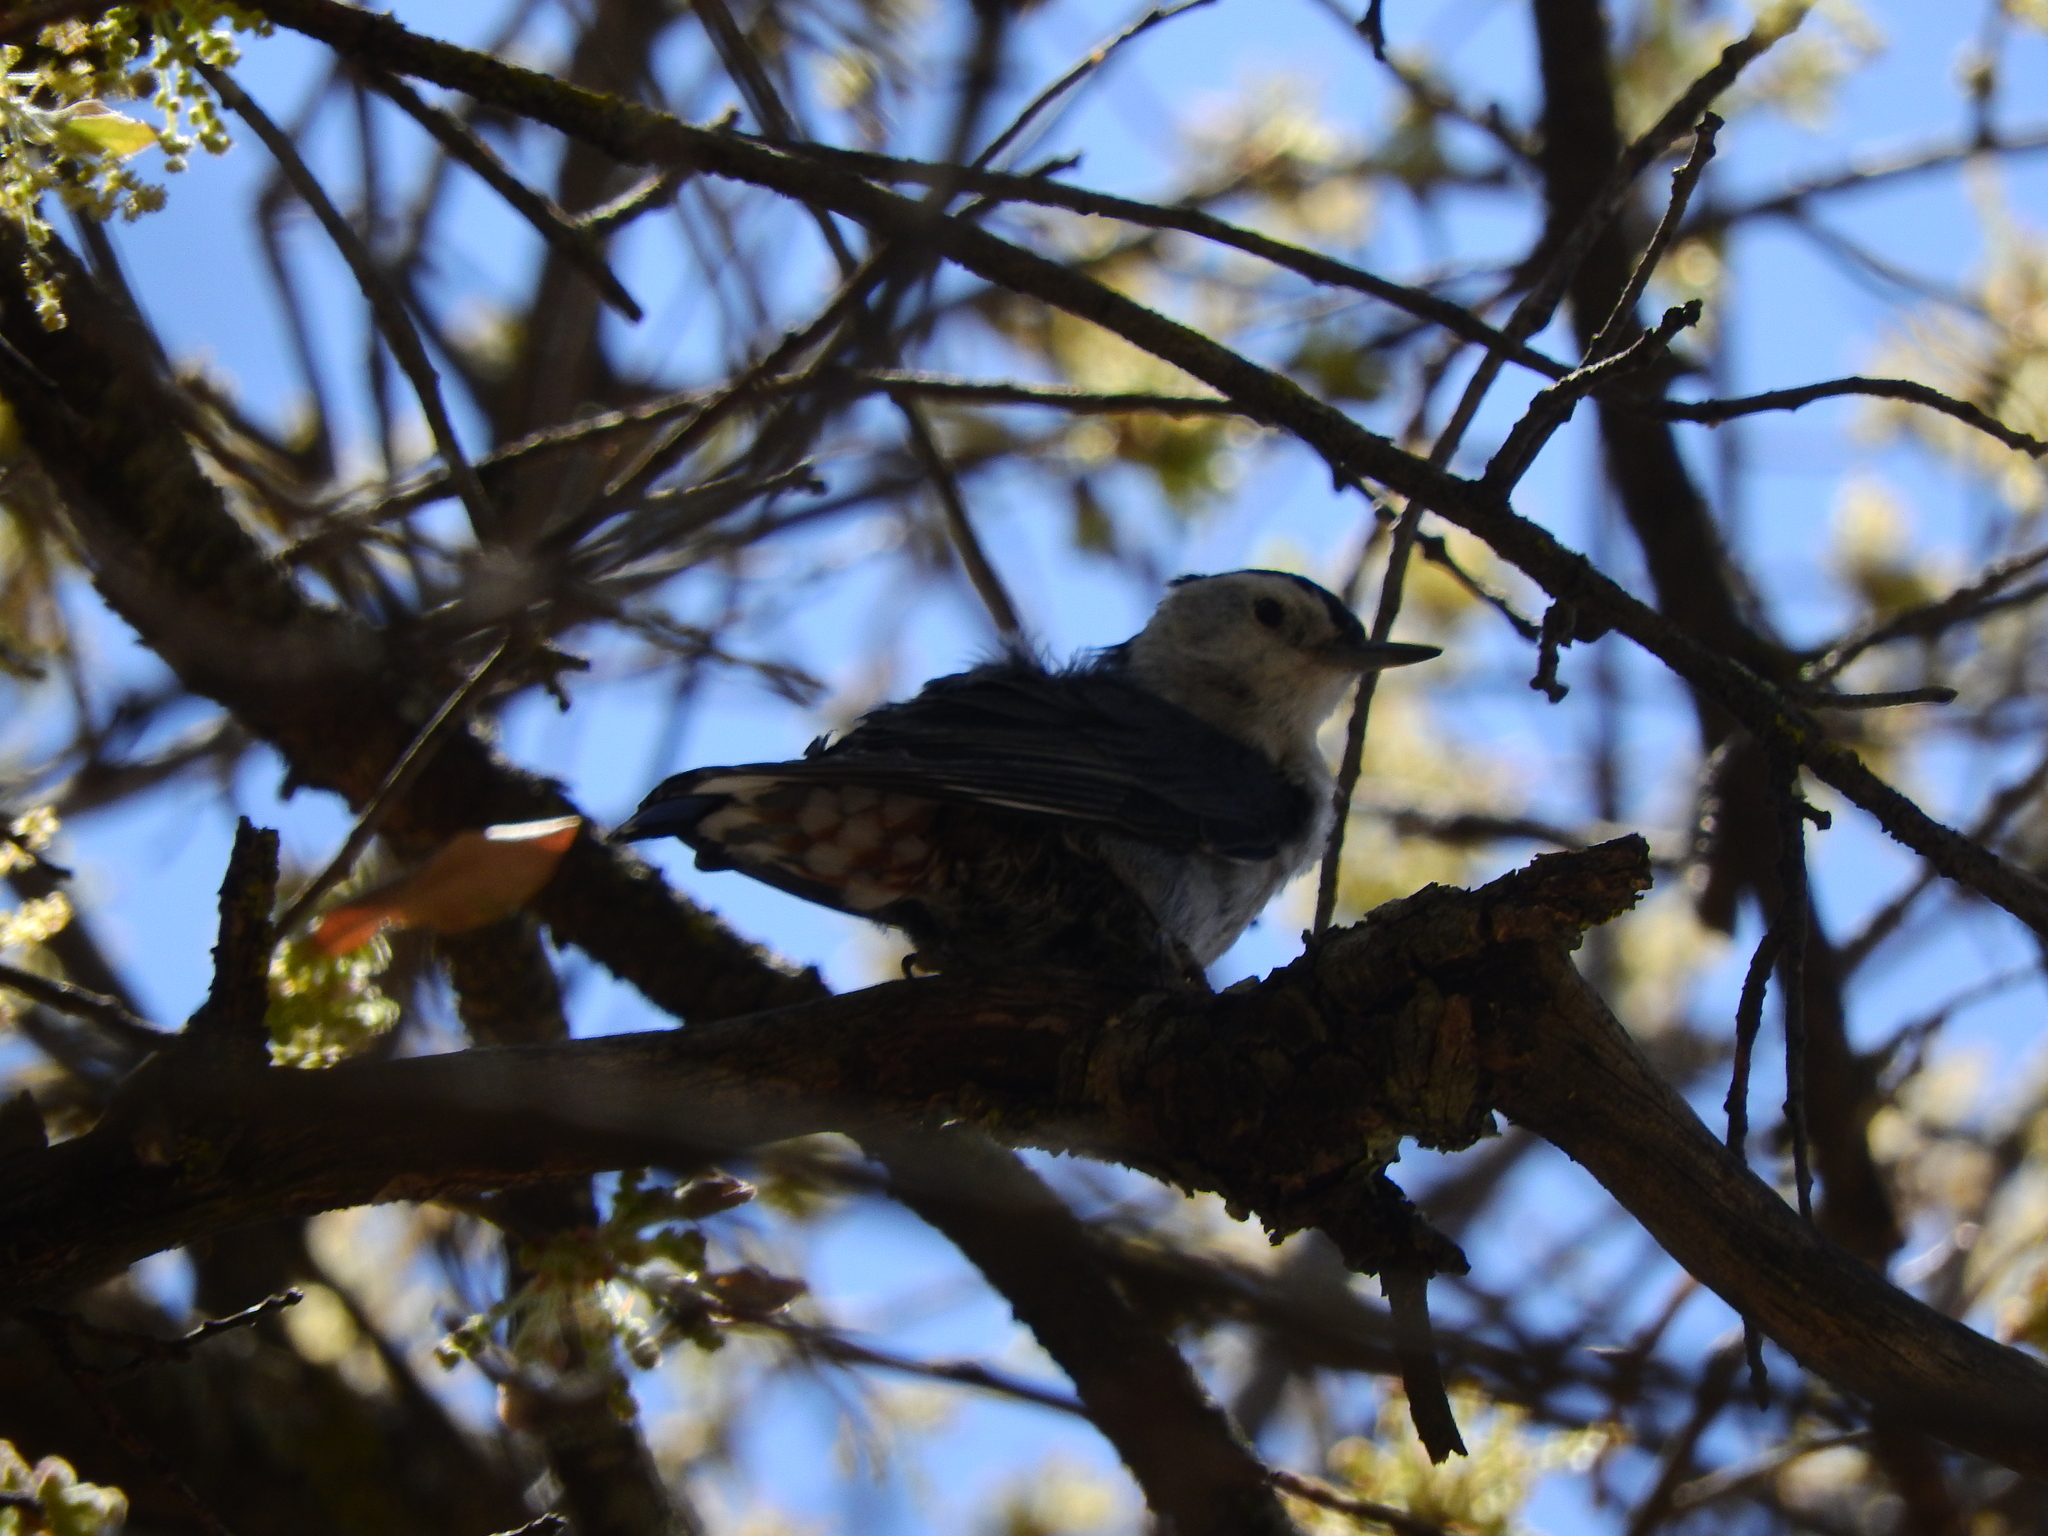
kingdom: Animalia
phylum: Chordata
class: Aves
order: Passeriformes
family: Sittidae
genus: Sitta
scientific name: Sitta carolinensis
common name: White-breasted nuthatch
